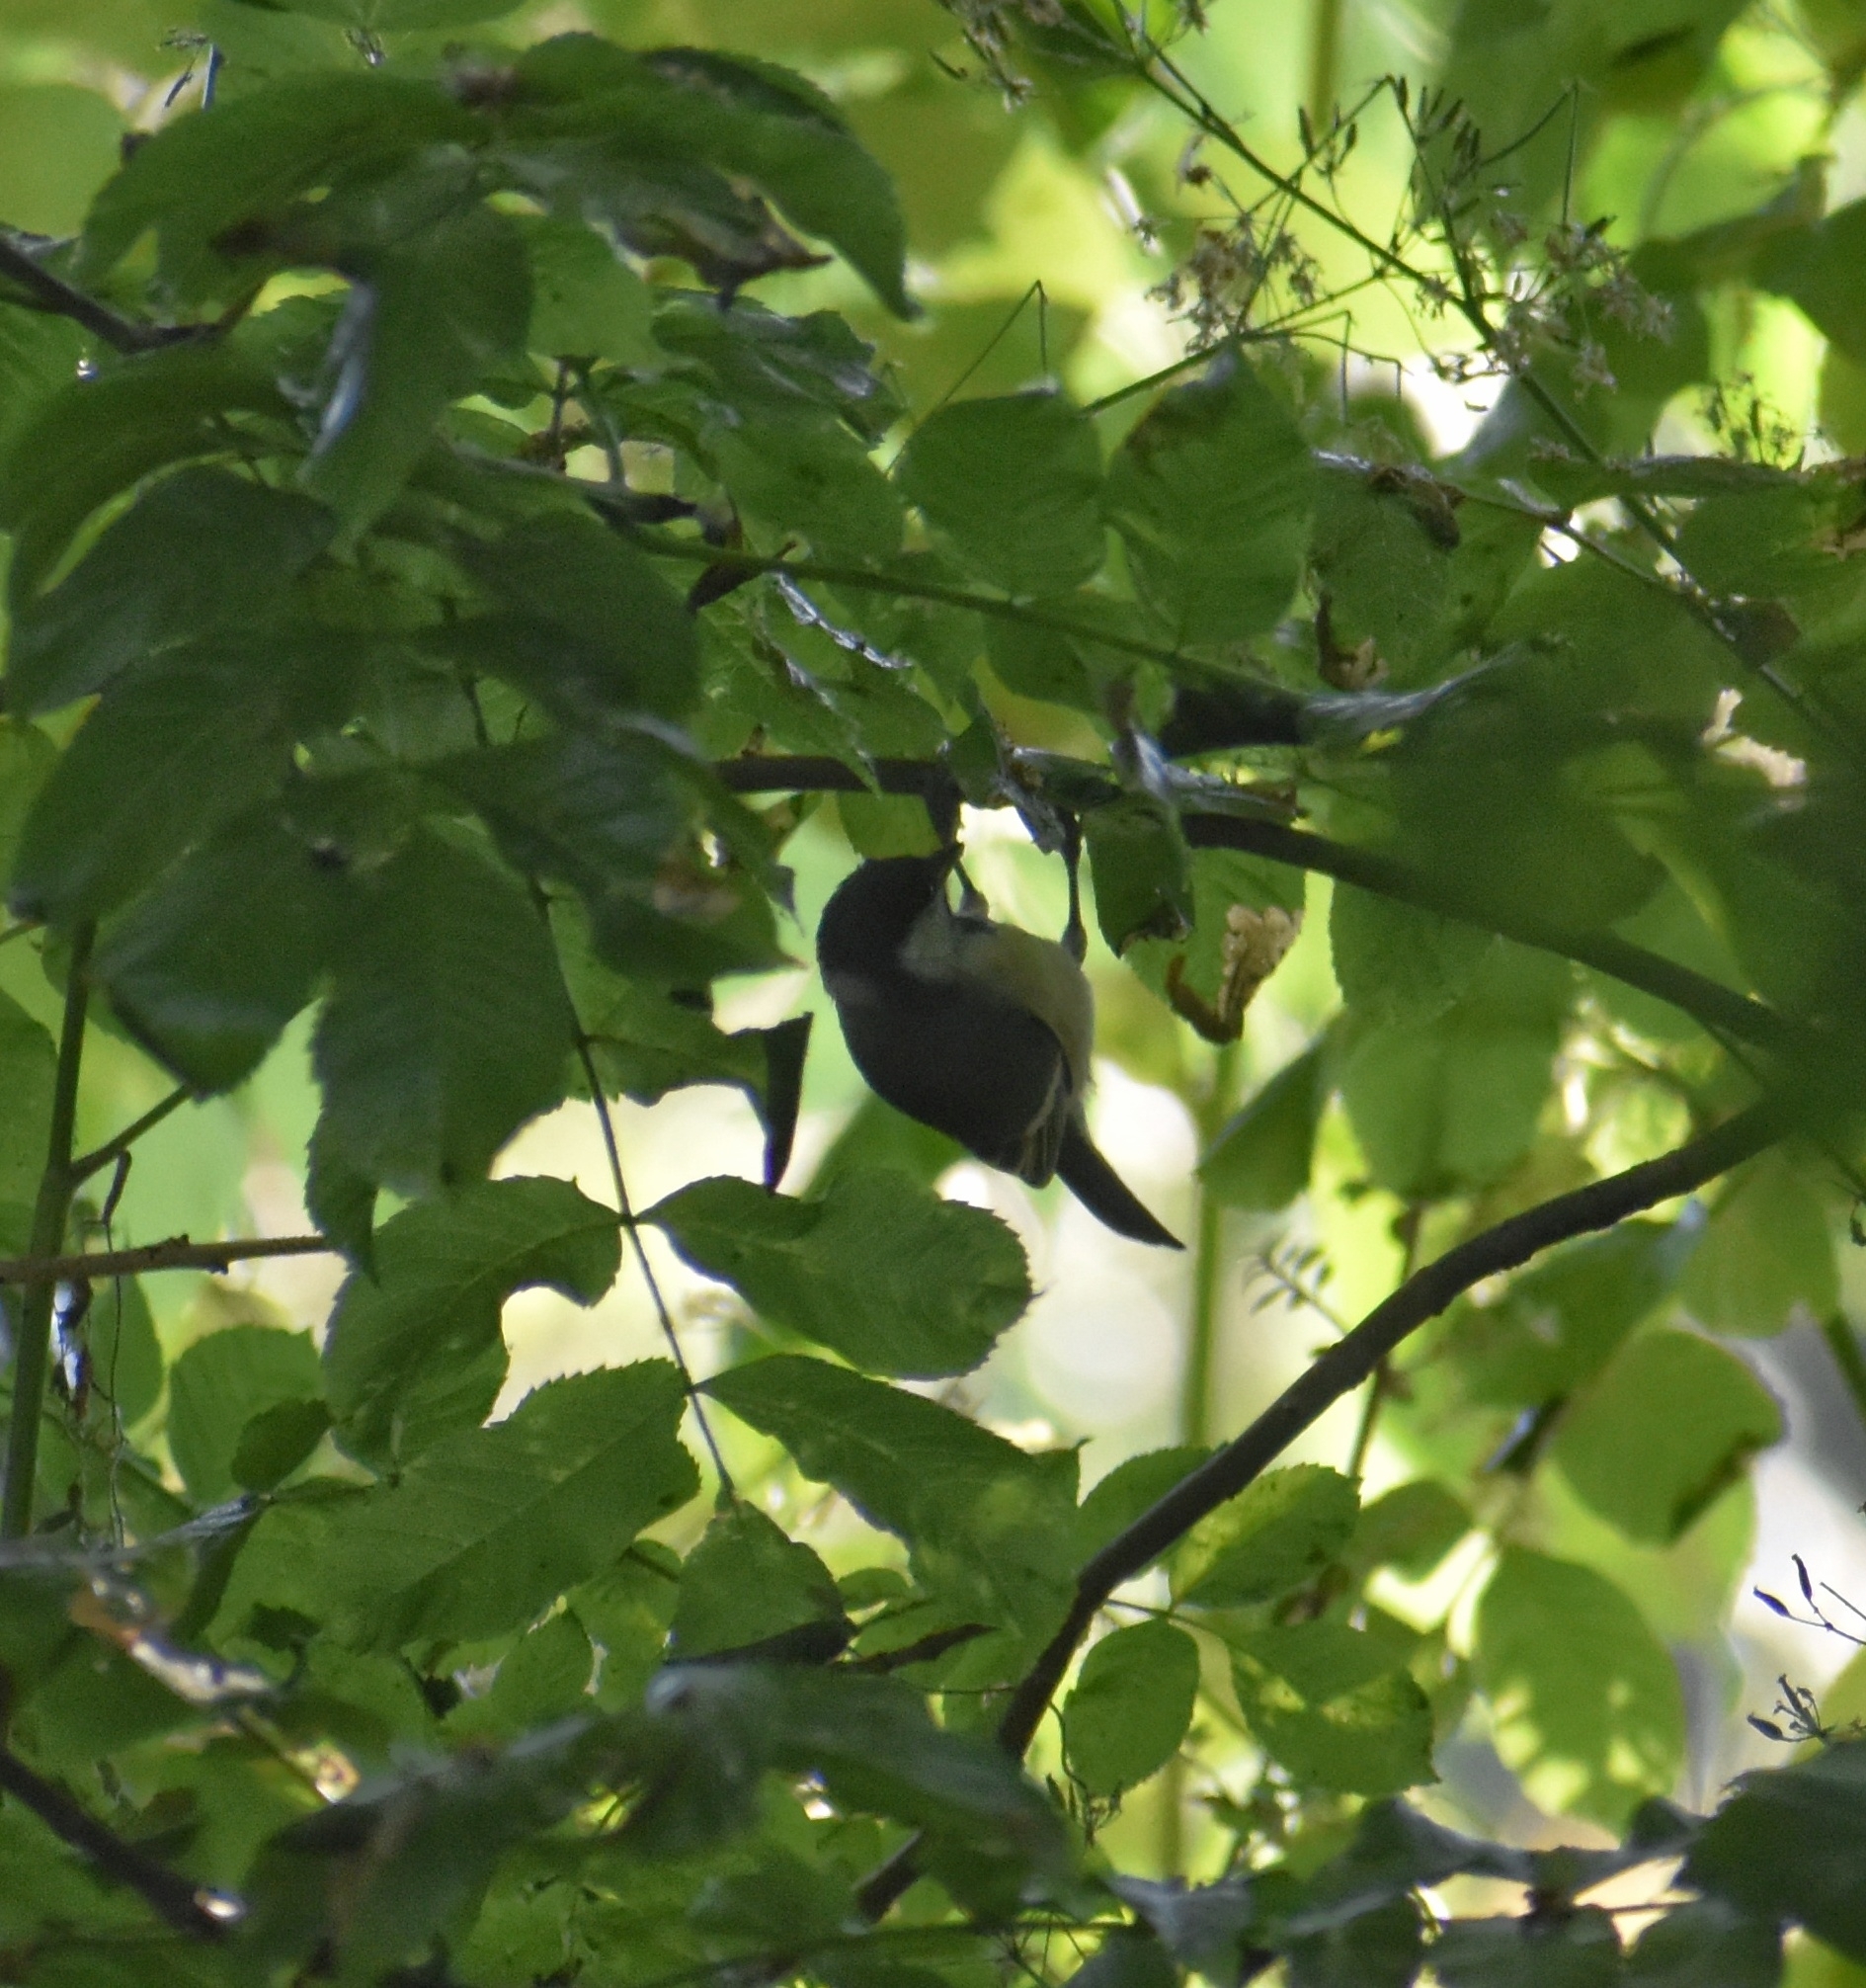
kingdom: Animalia
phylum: Chordata
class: Aves
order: Passeriformes
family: Paridae
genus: Parus
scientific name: Parus major
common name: Great tit
